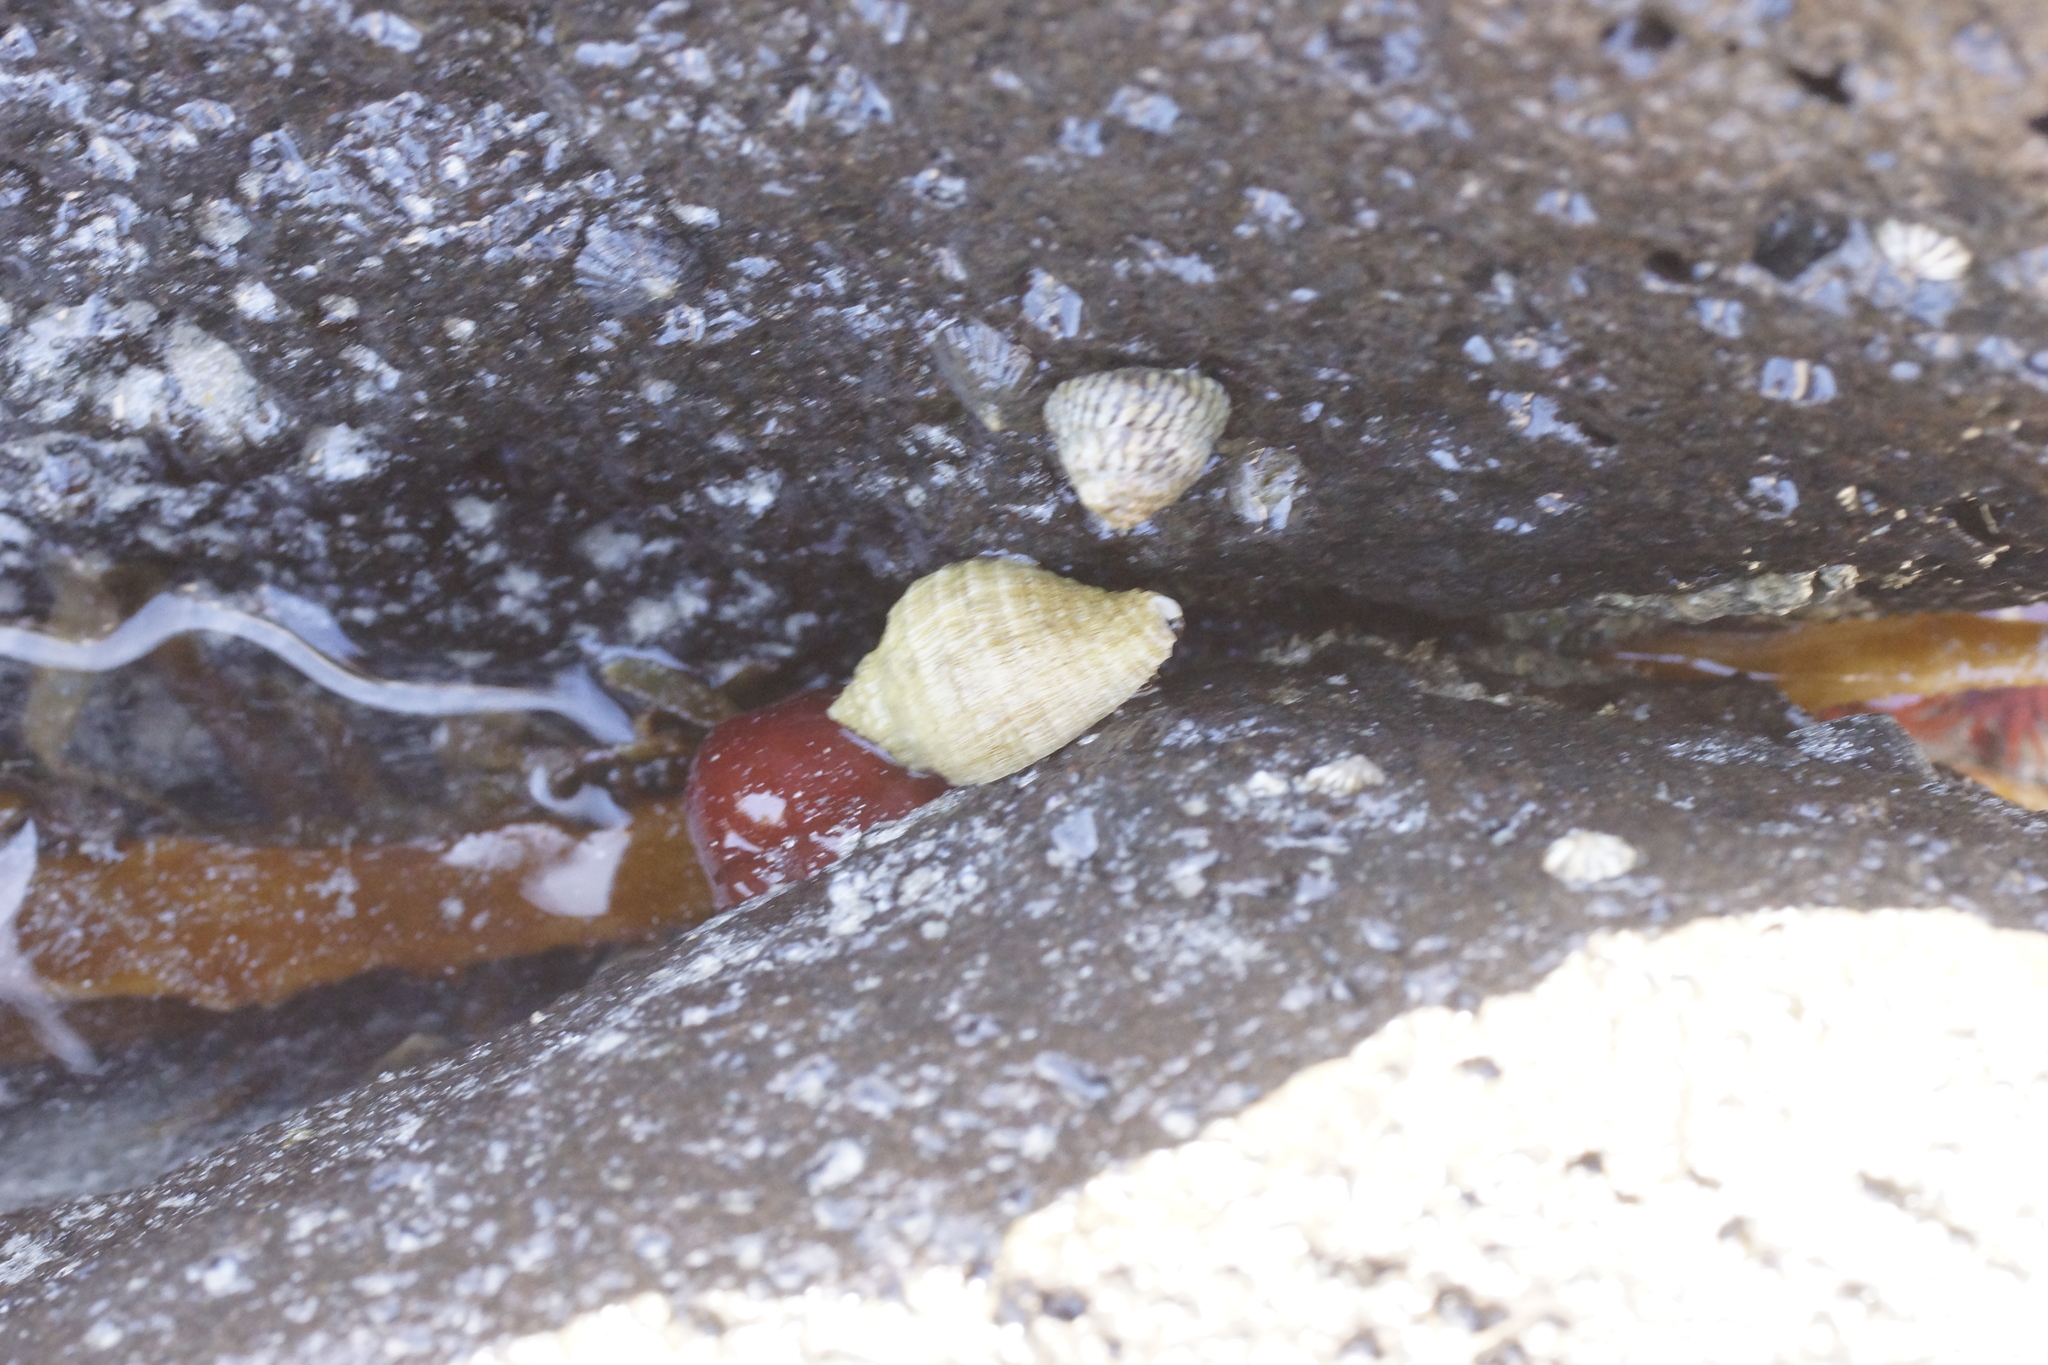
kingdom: Animalia
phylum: Mollusca
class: Gastropoda
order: Neogastropoda
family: Muricidae
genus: Dicathais
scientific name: Dicathais orbita
